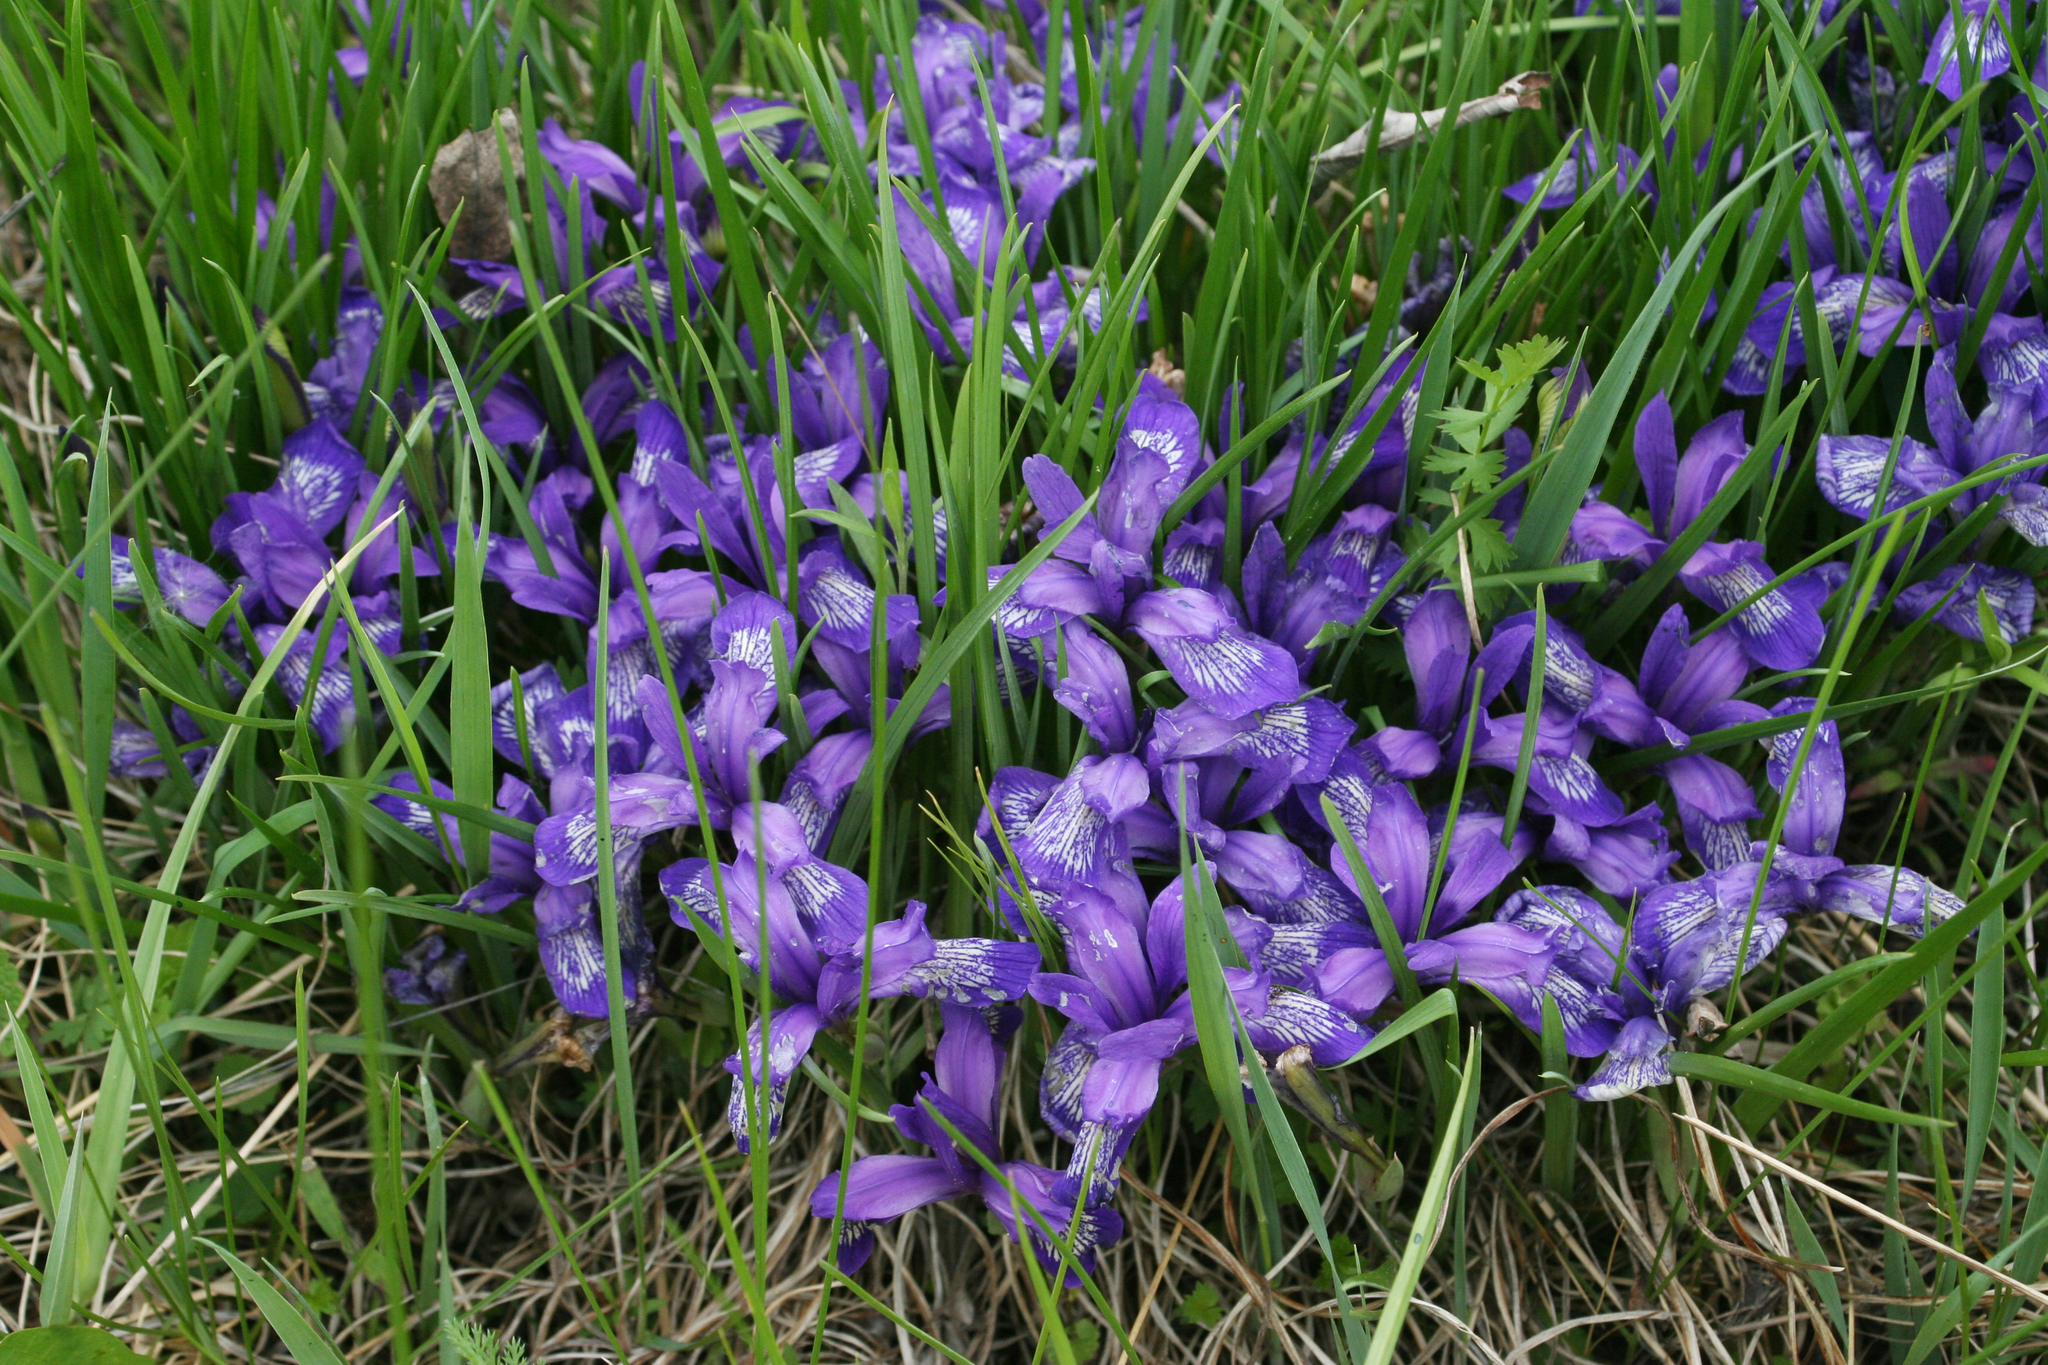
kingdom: Plantae
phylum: Tracheophyta
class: Liliopsida
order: Asparagales
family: Iridaceae
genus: Iris
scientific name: Iris ruthenica
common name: Purple-bract iris
